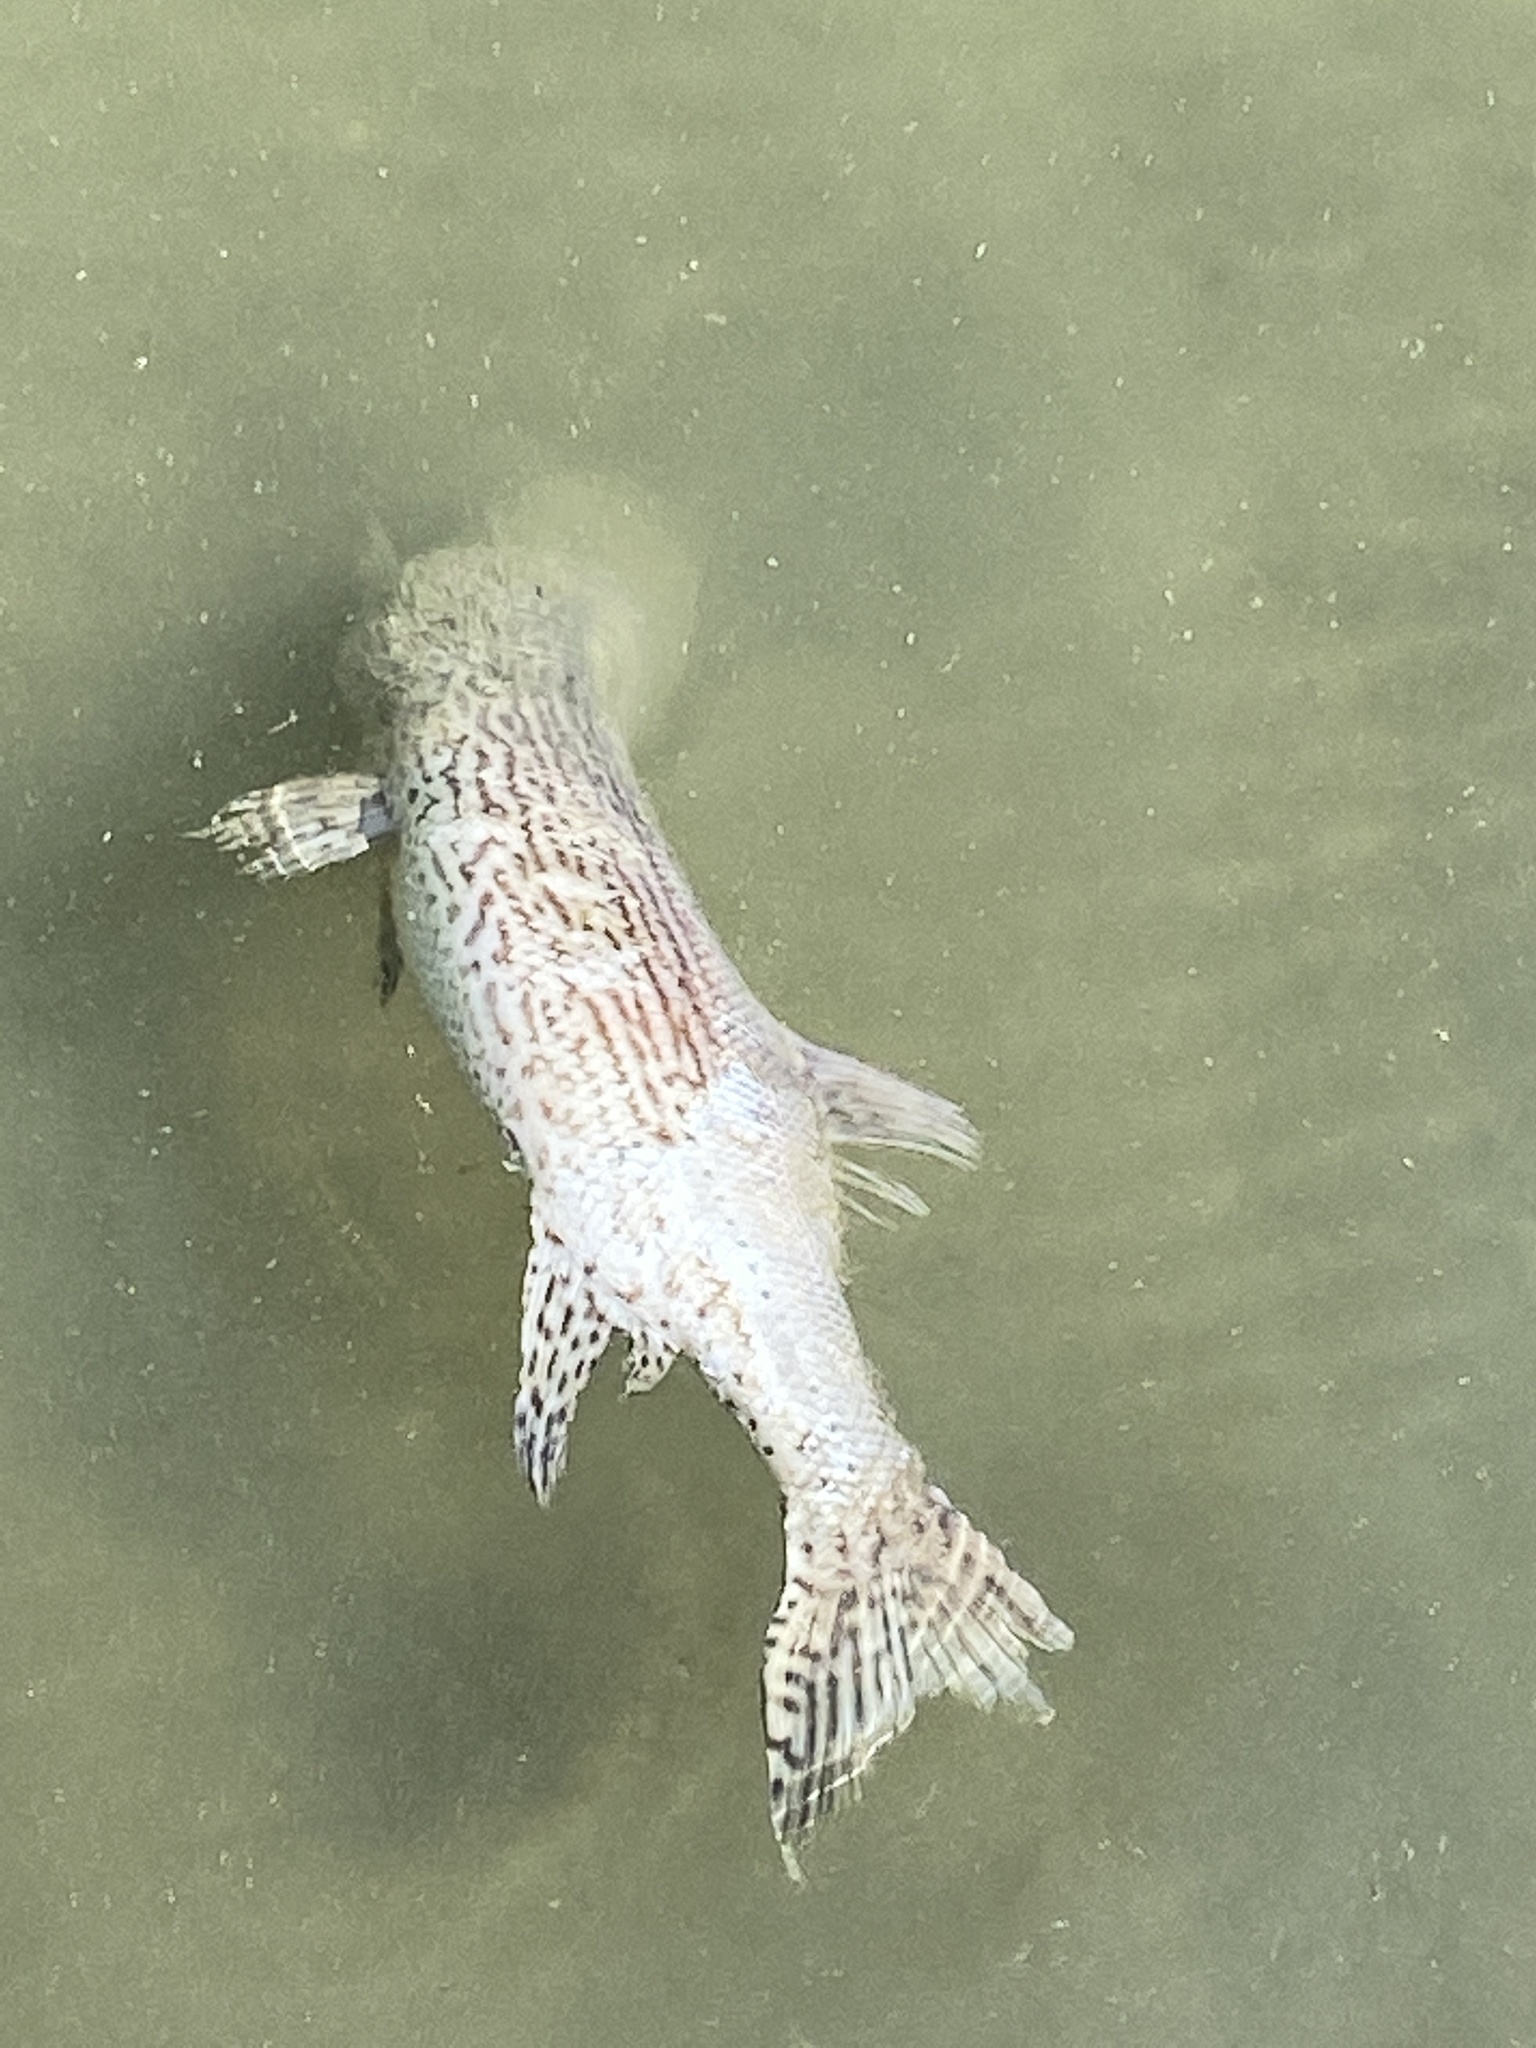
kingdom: Animalia
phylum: Chordata
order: Esociformes
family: Esocidae
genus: Esox
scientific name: Esox cisalpinus
